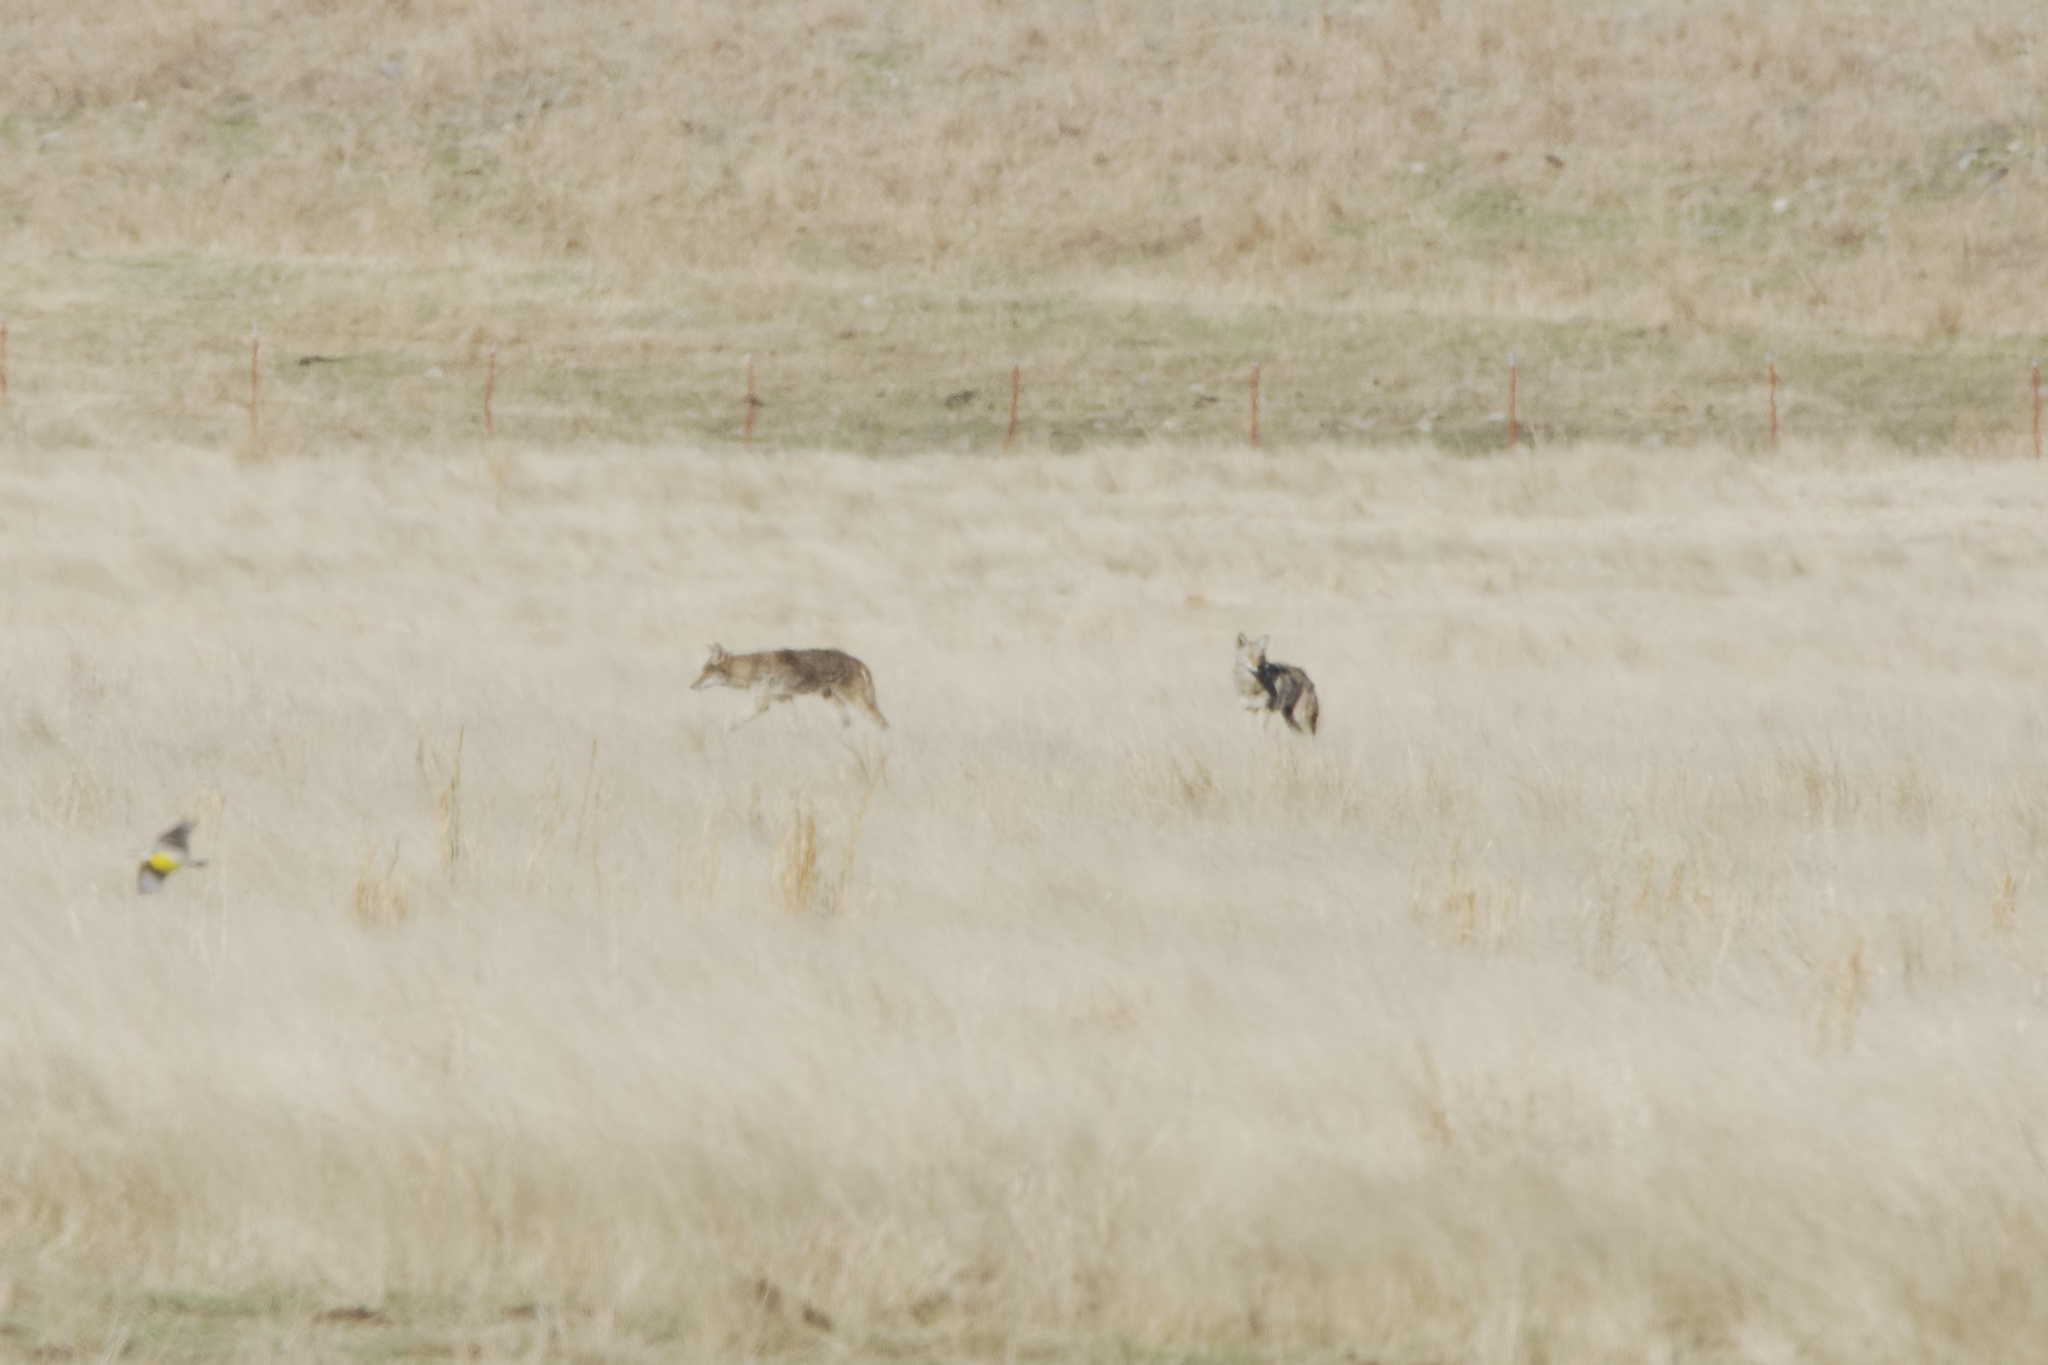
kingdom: Animalia
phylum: Chordata
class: Mammalia
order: Carnivora
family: Canidae
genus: Canis
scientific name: Canis latrans
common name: Coyote
